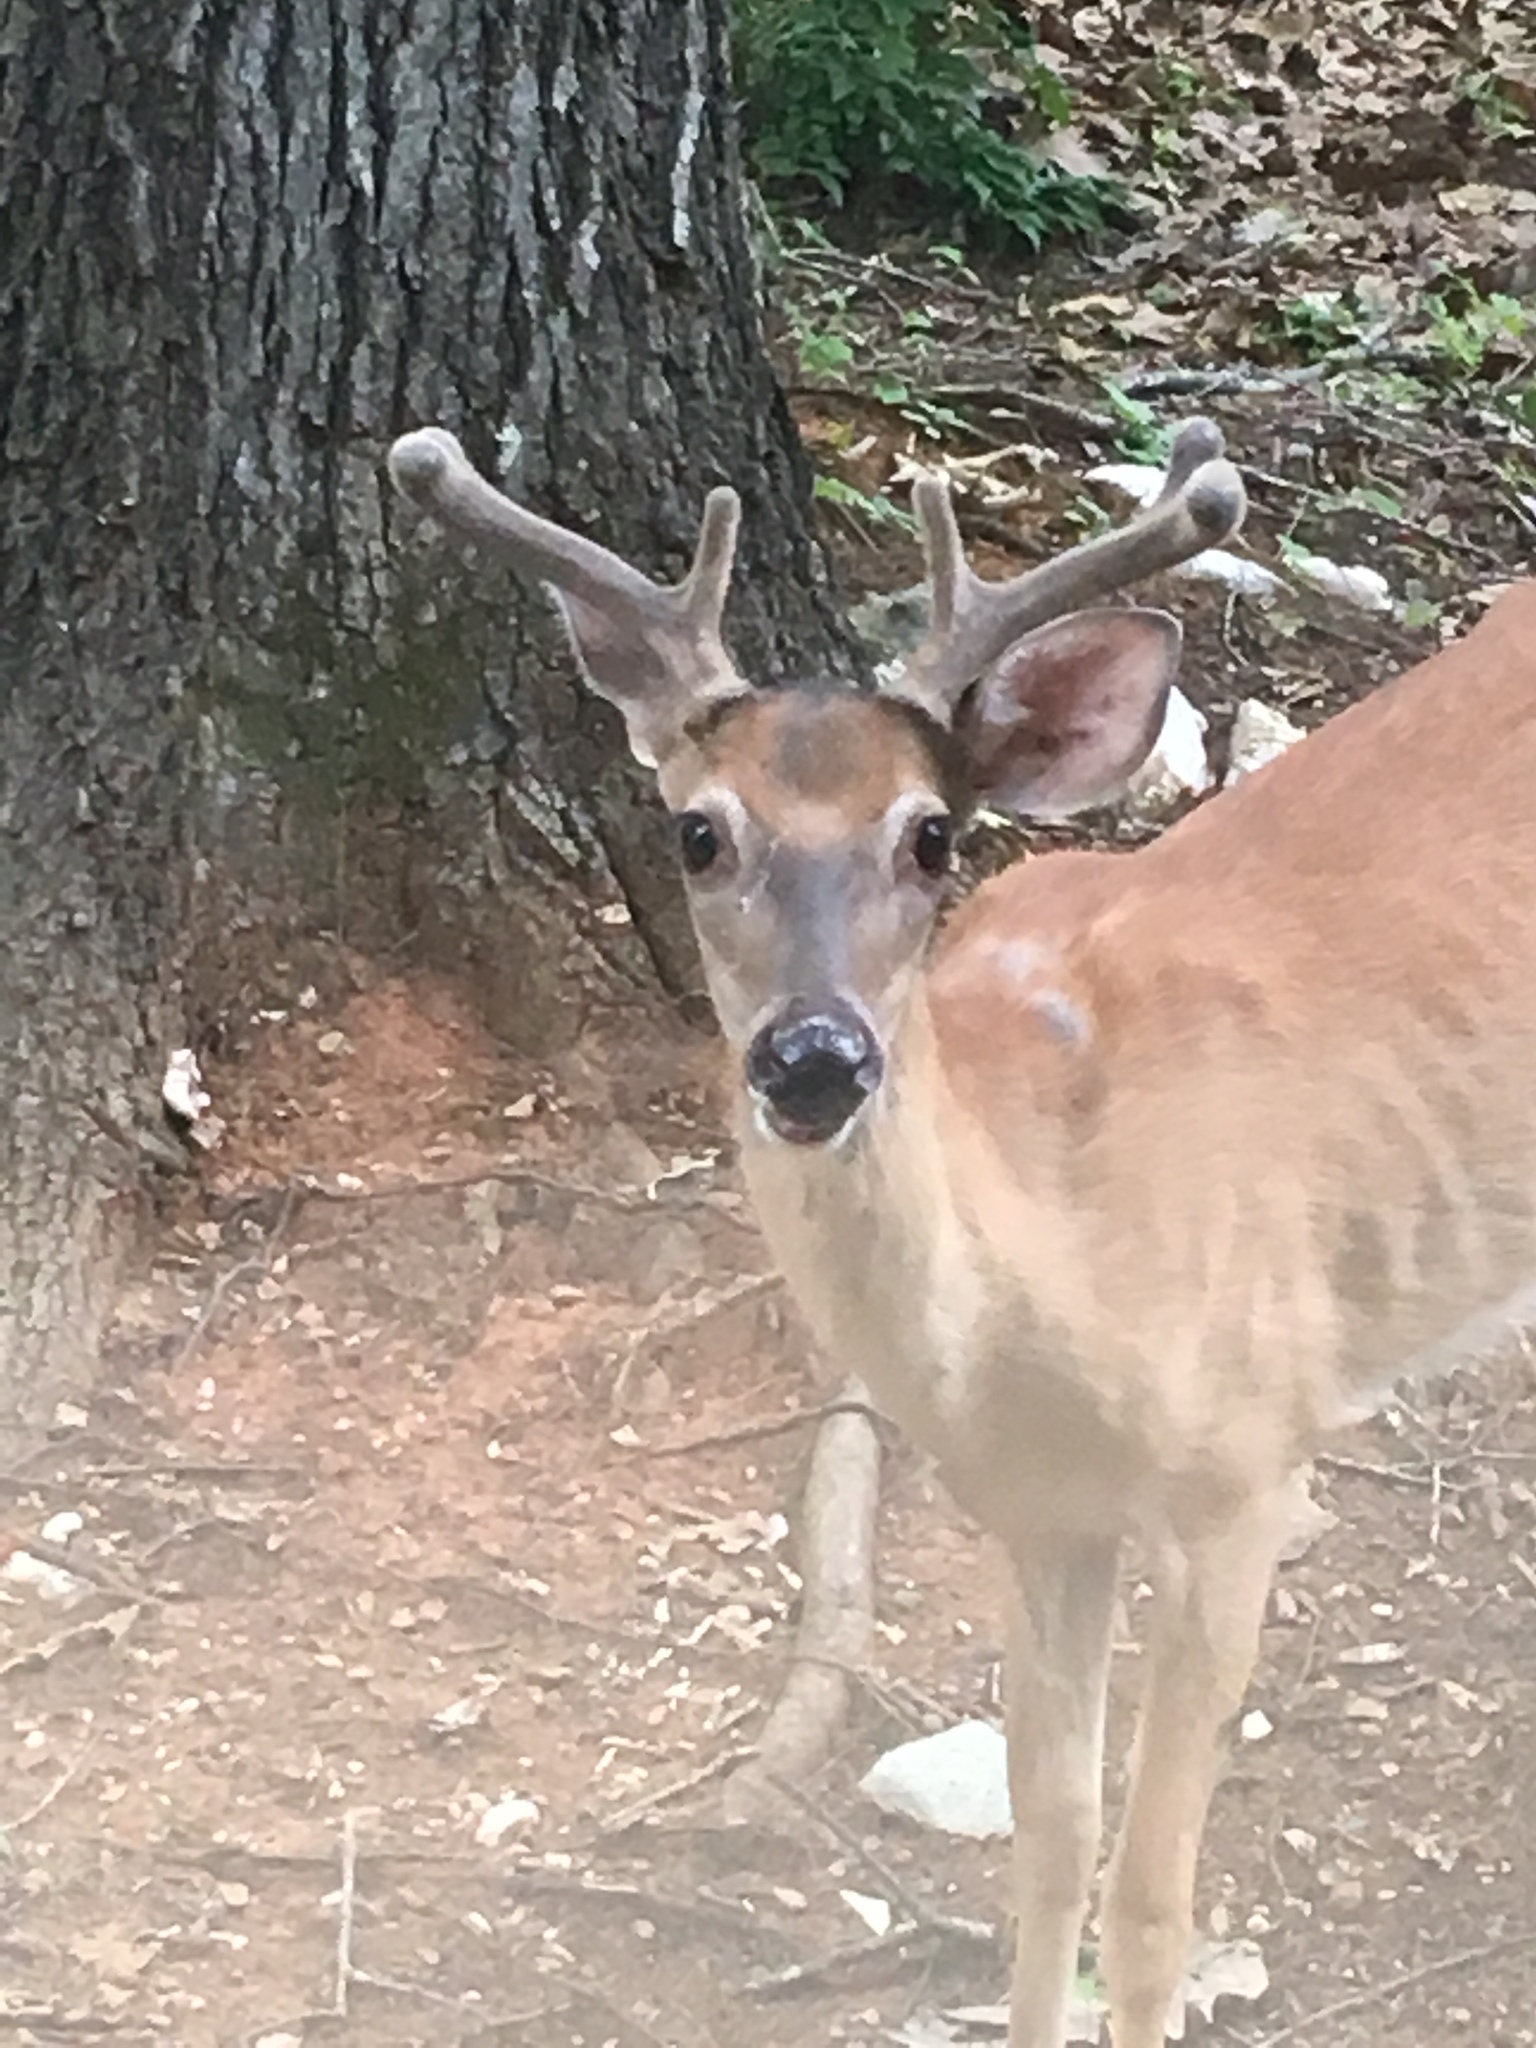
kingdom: Animalia
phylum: Chordata
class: Mammalia
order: Artiodactyla
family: Cervidae
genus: Odocoileus
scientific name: Odocoileus virginianus
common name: White-tailed deer
